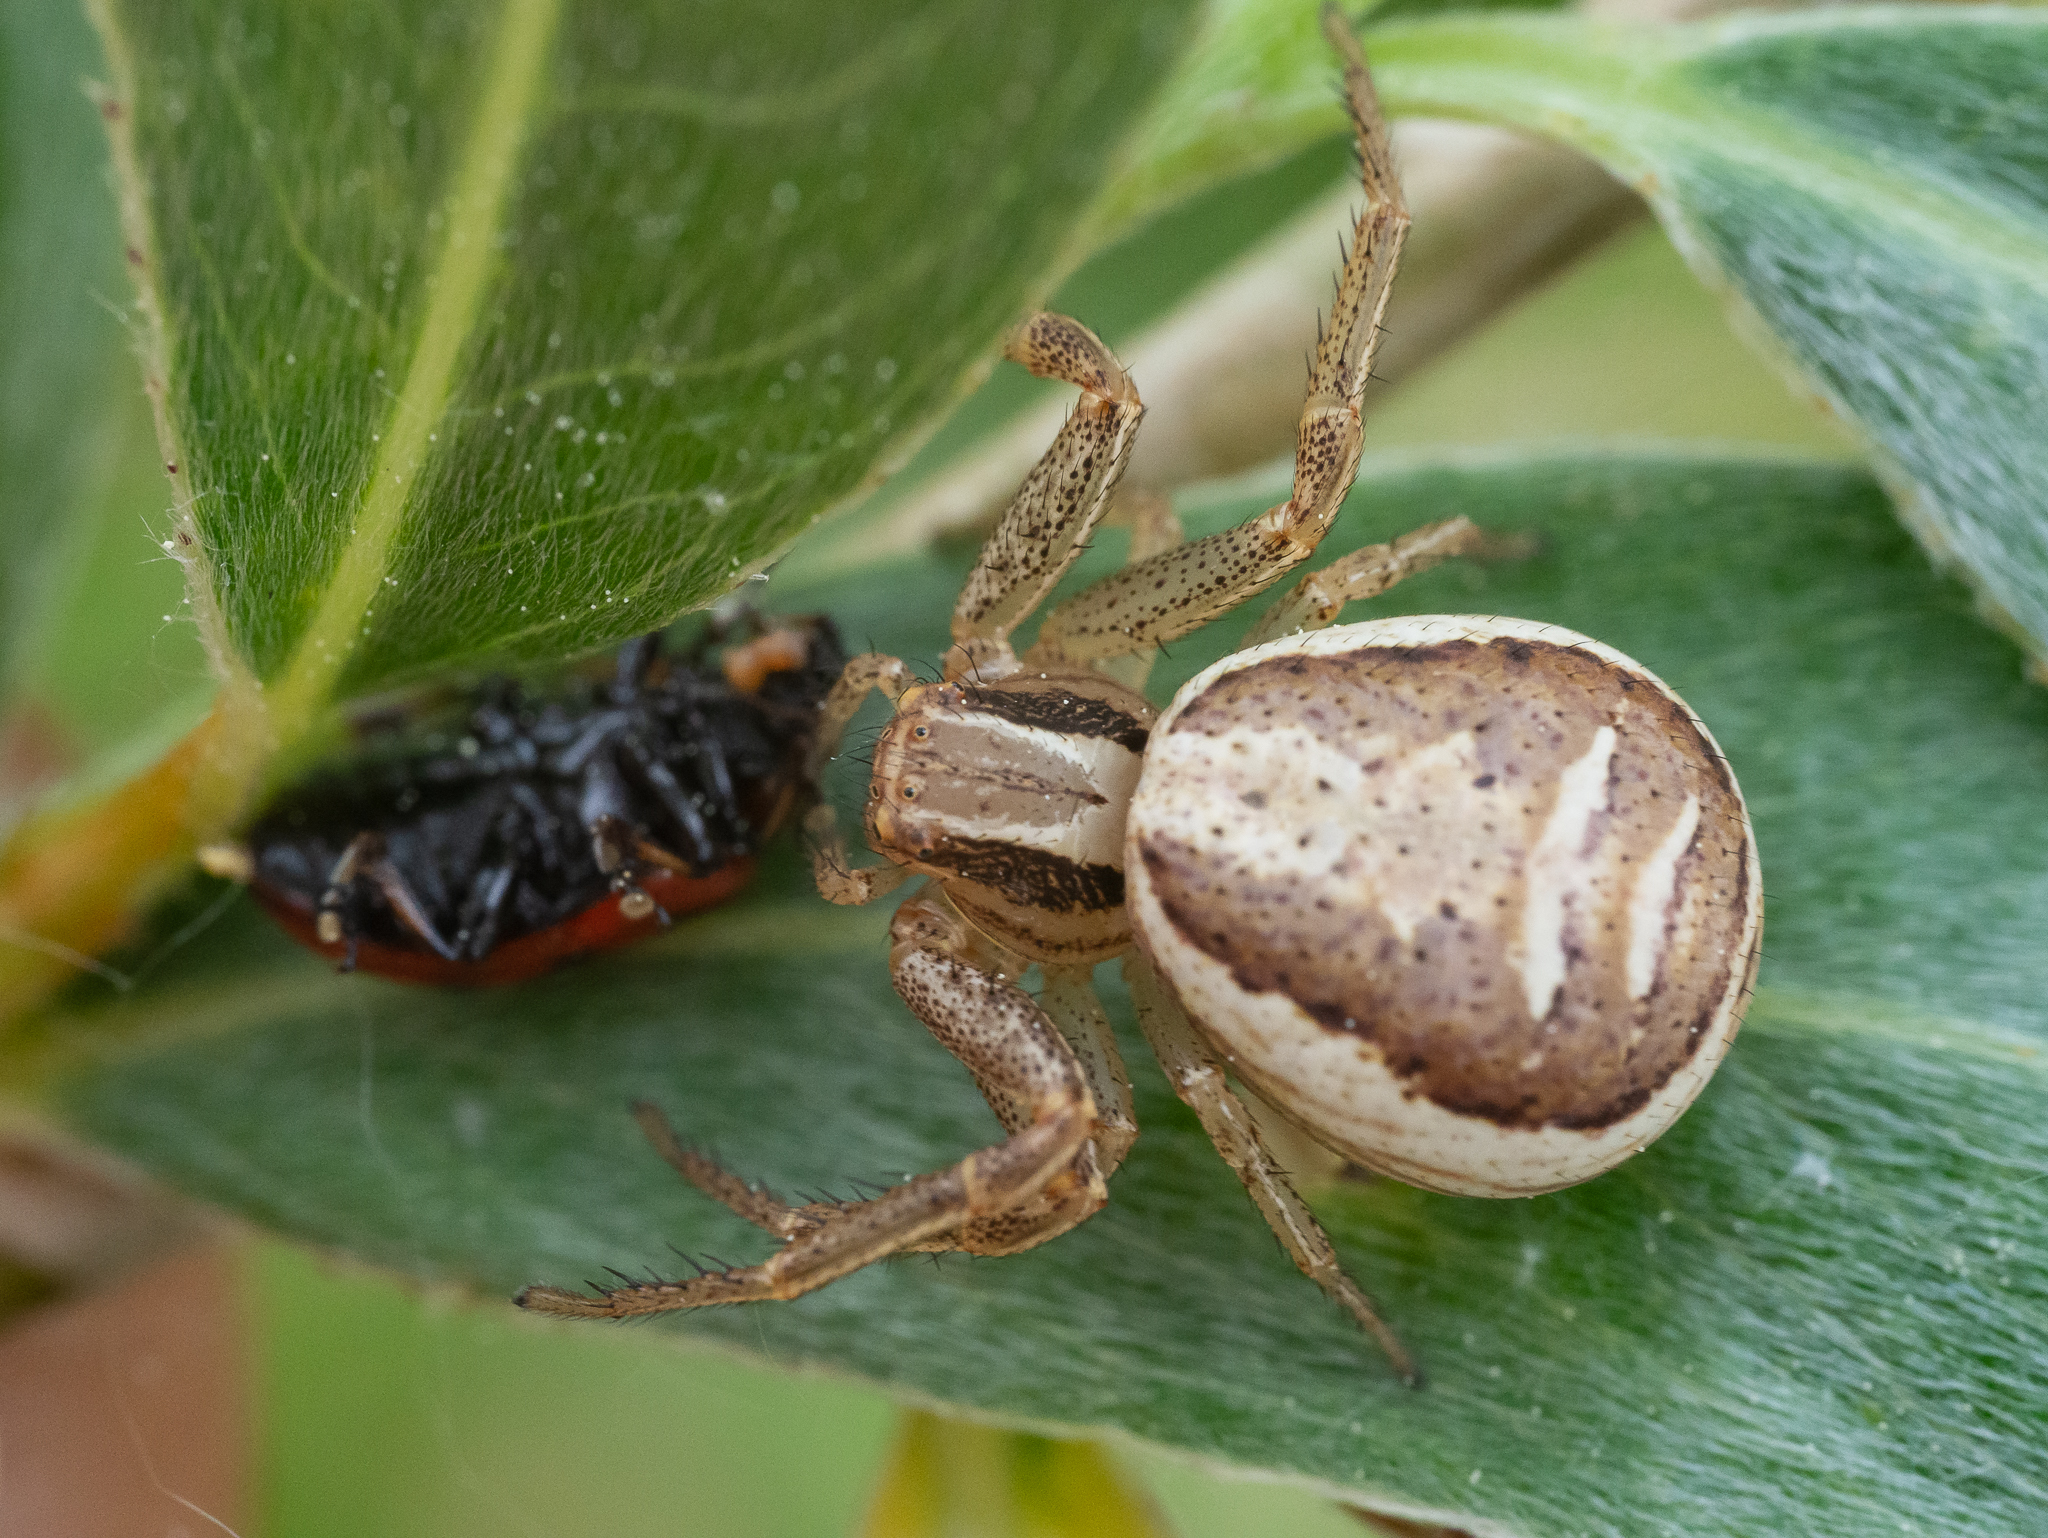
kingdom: Animalia
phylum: Arthropoda
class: Arachnida
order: Araneae
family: Thomisidae
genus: Xysticus
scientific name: Xysticus ulmi
